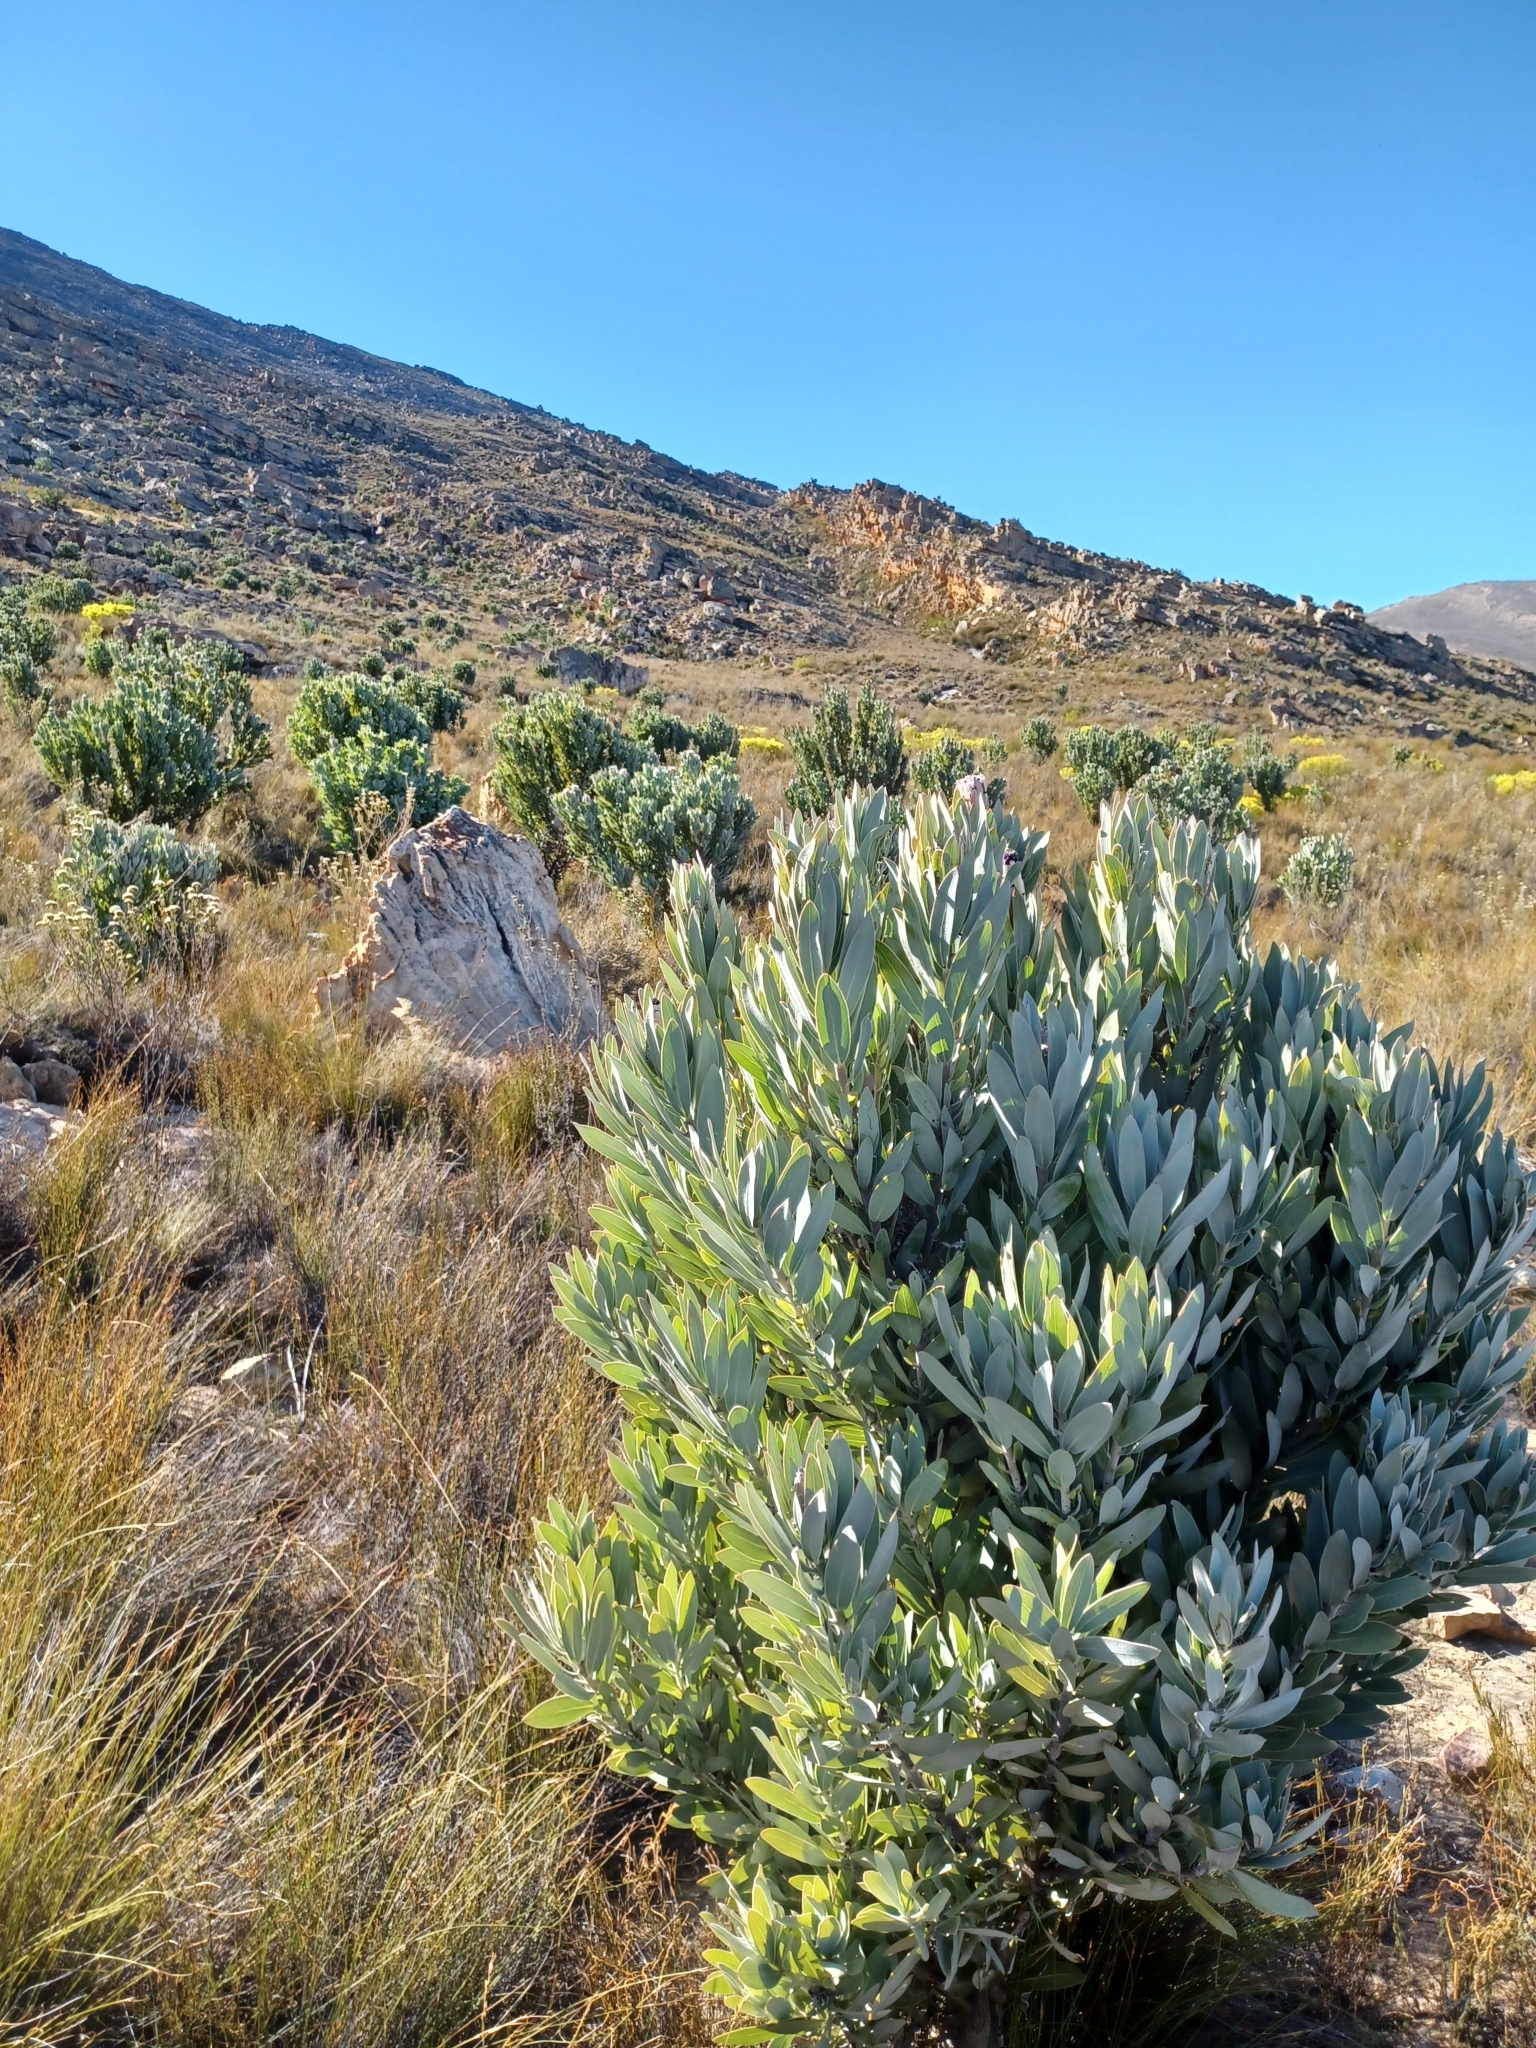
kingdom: Plantae
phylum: Tracheophyta
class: Magnoliopsida
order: Proteales
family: Proteaceae
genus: Protea
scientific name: Protea laurifolia
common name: Grey-leaf sugarbsh
